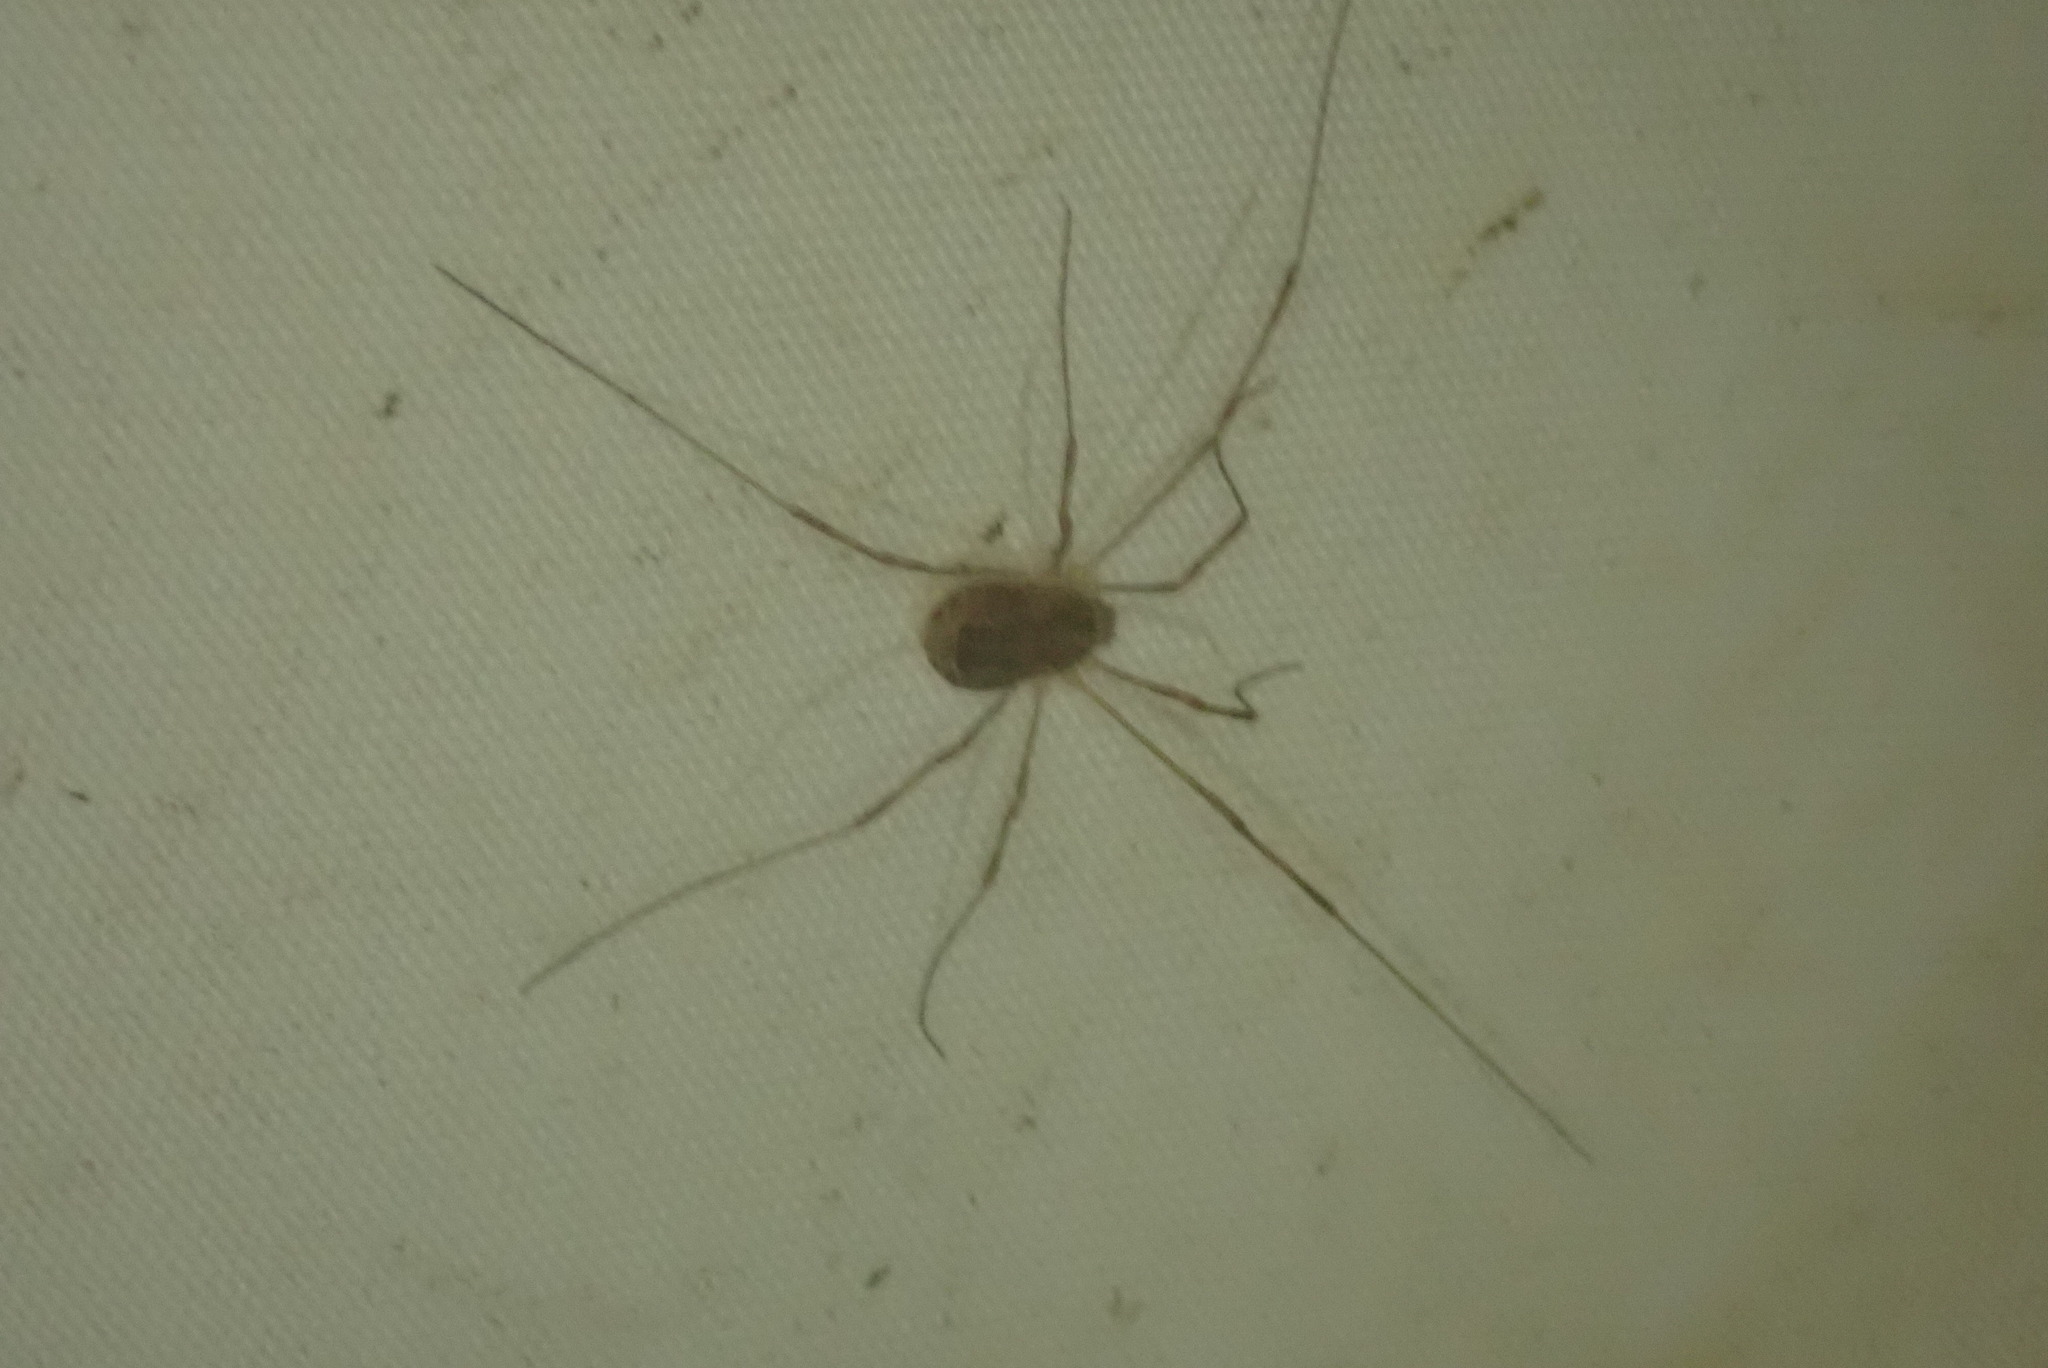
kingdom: Animalia
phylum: Arthropoda
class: Arachnida
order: Opiliones
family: Phalangiidae
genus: Rilaena
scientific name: Rilaena triangularis
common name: Spring harvestman
